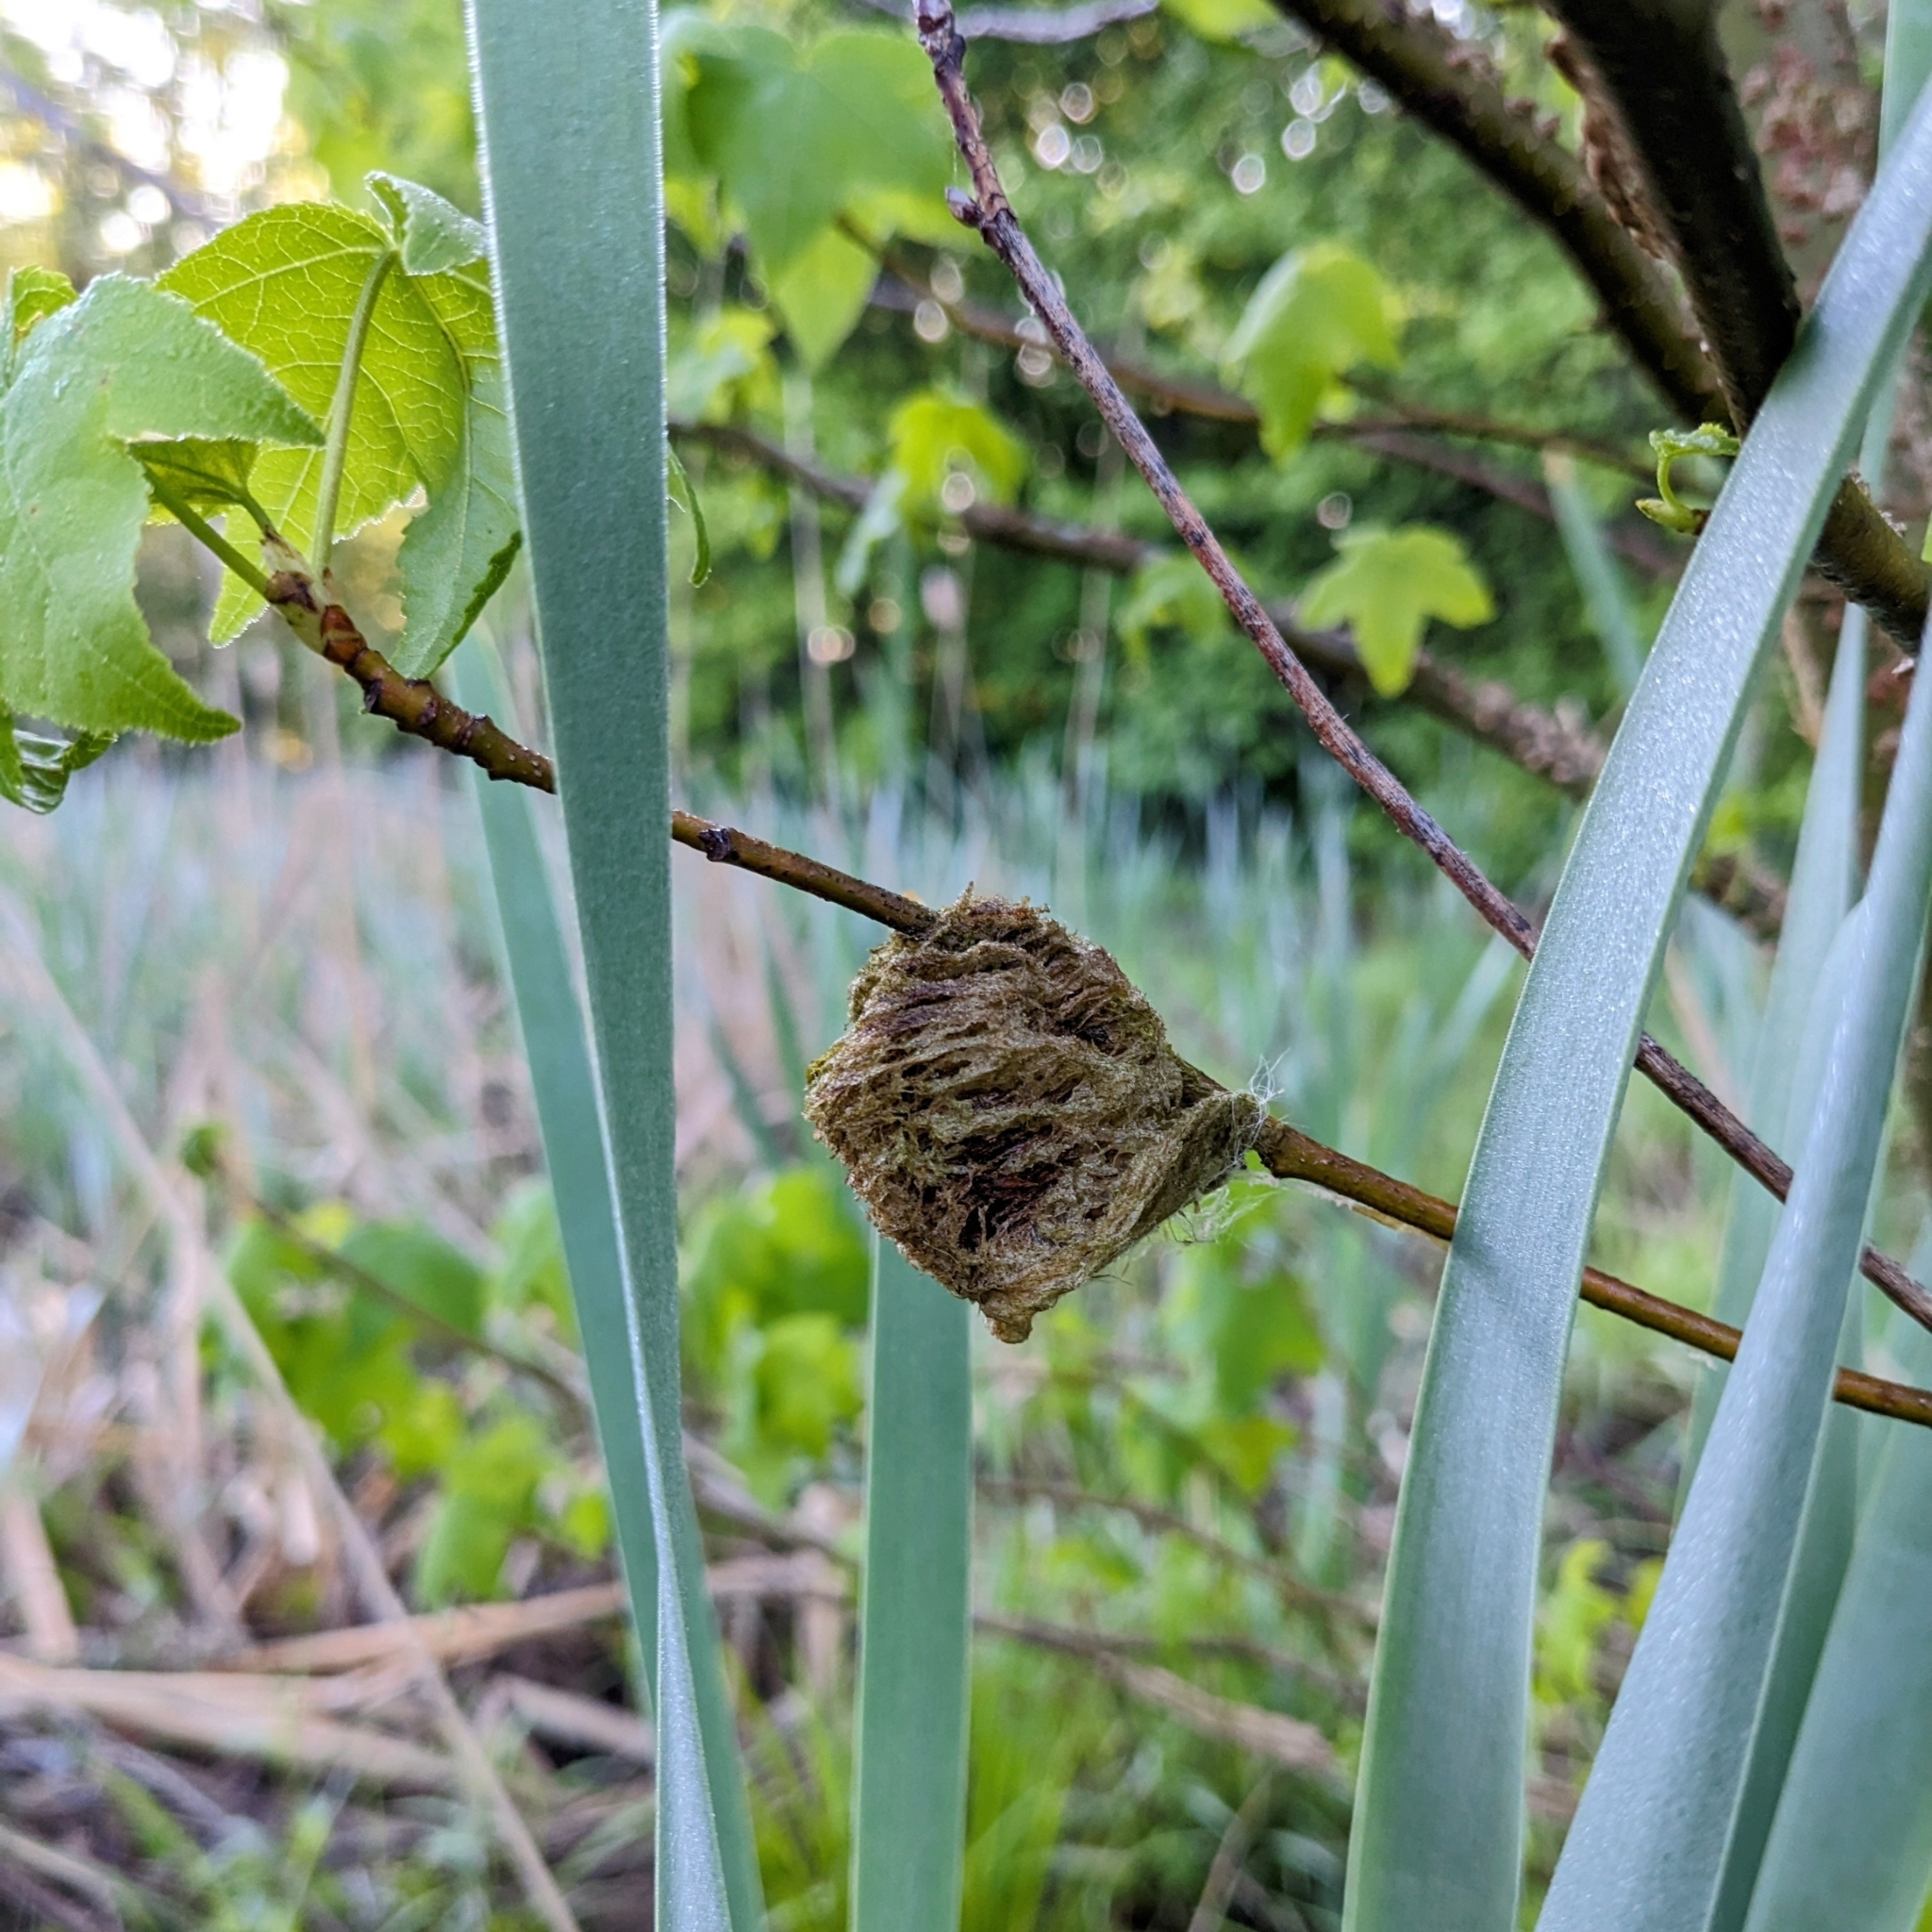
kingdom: Animalia
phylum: Arthropoda
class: Insecta
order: Mantodea
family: Mantidae
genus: Tenodera
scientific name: Tenodera sinensis
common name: Chinese mantis
